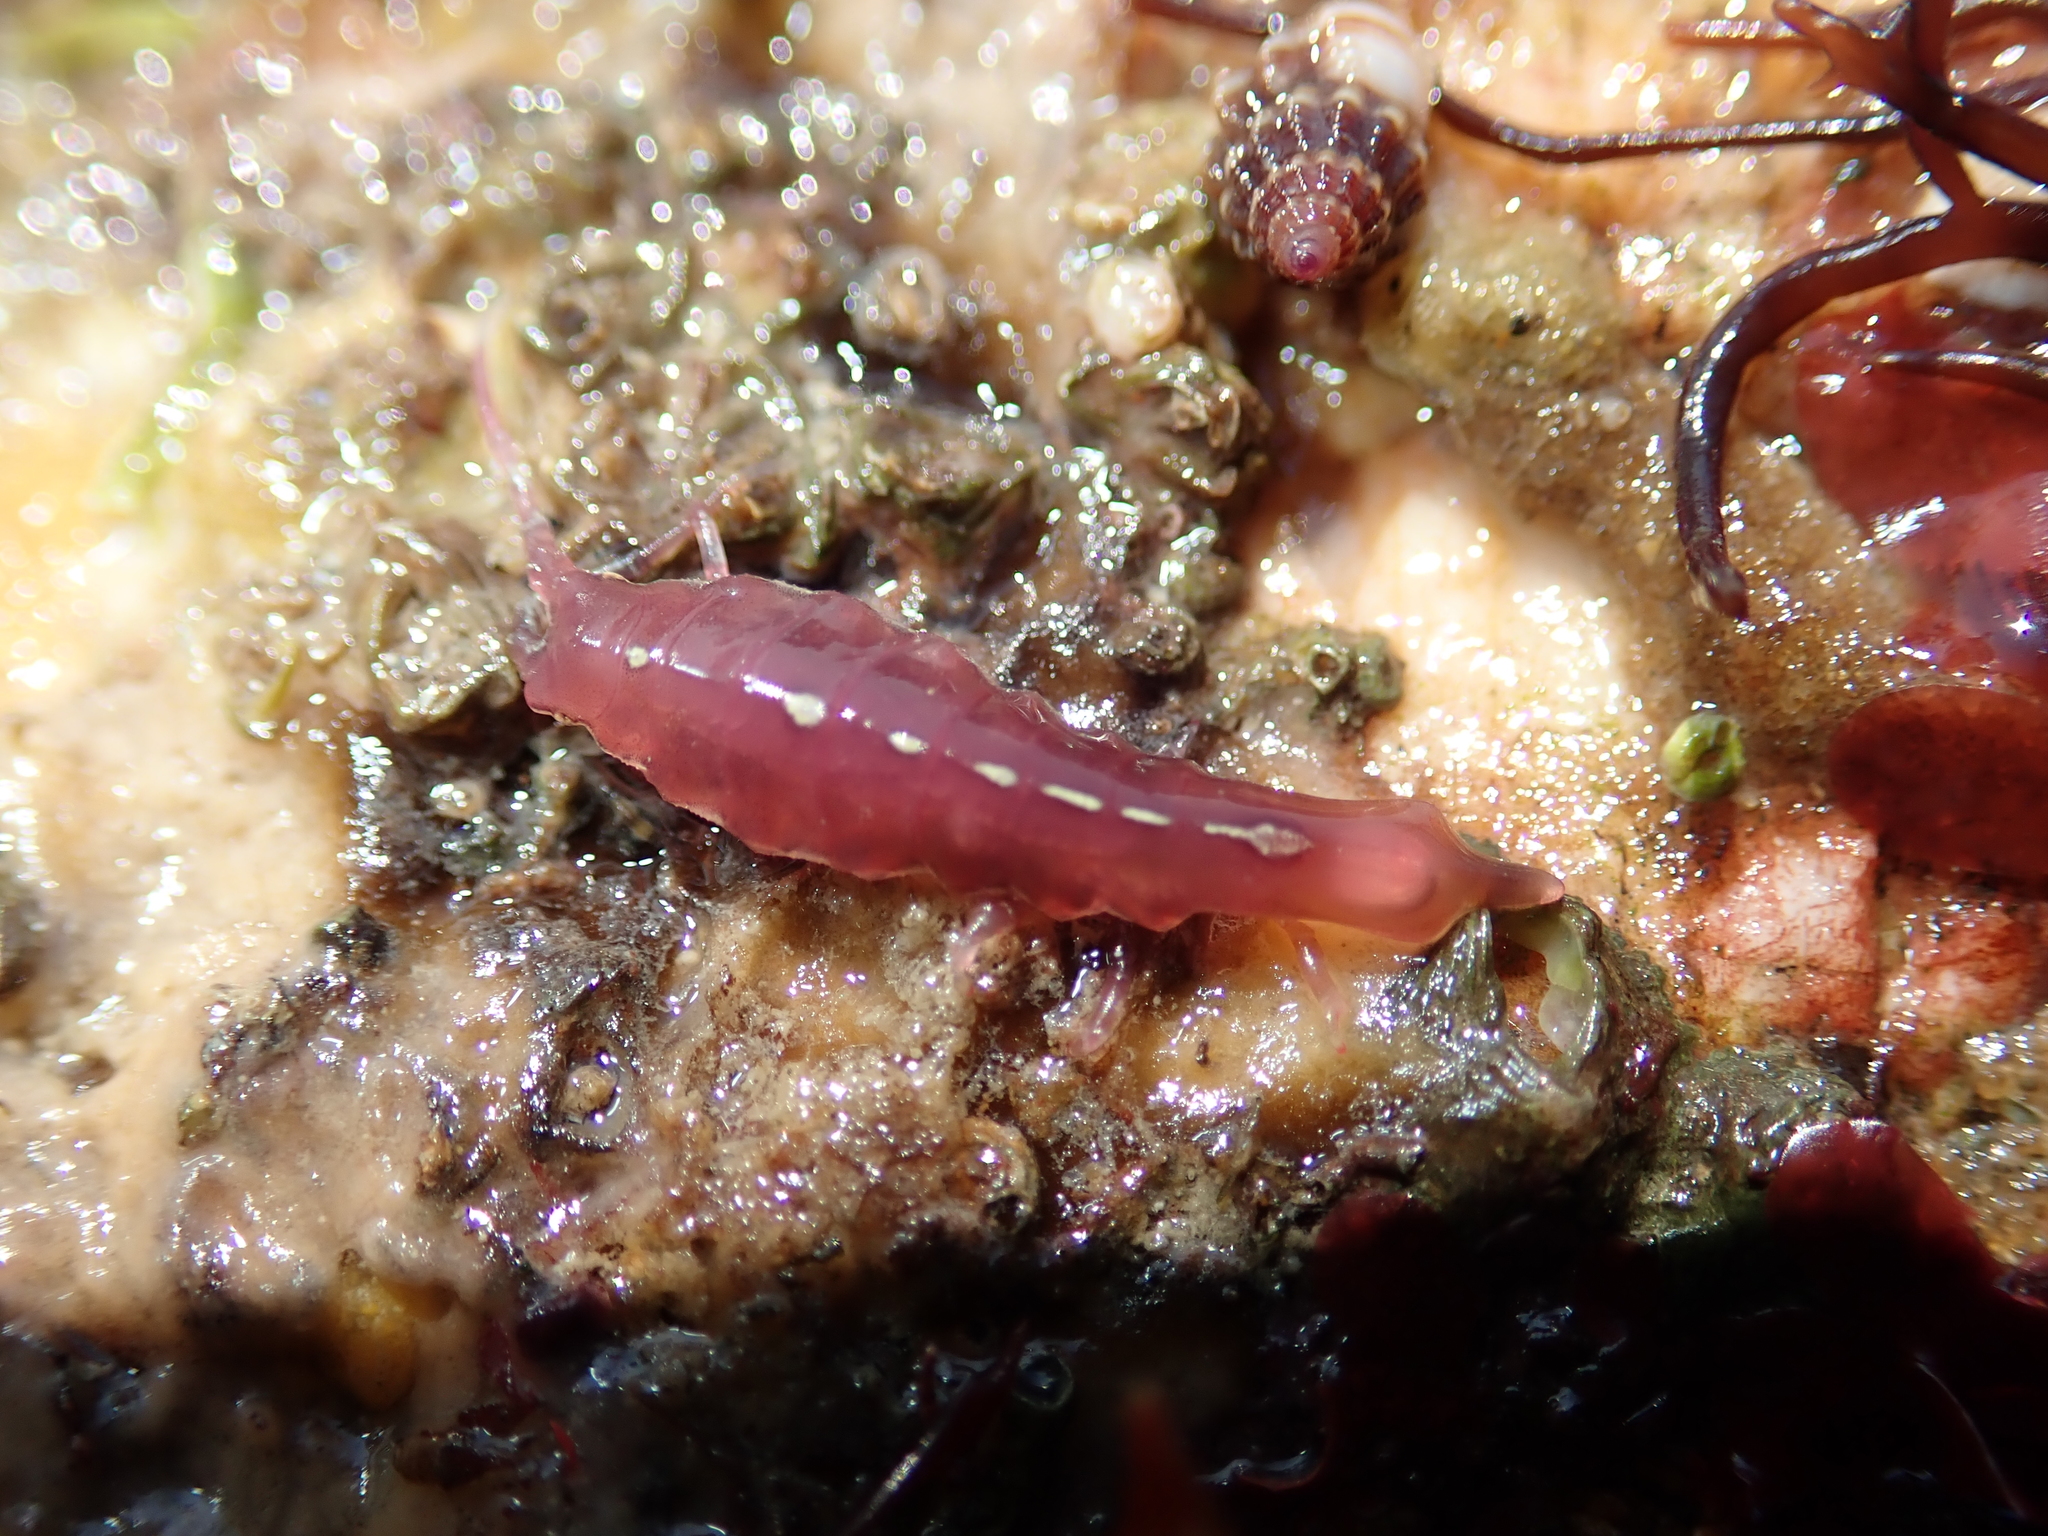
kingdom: Animalia
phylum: Arthropoda
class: Malacostraca
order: Isopoda
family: Idoteidae
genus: Stenosoma
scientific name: Stenosoma lancifer
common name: Sea slater
